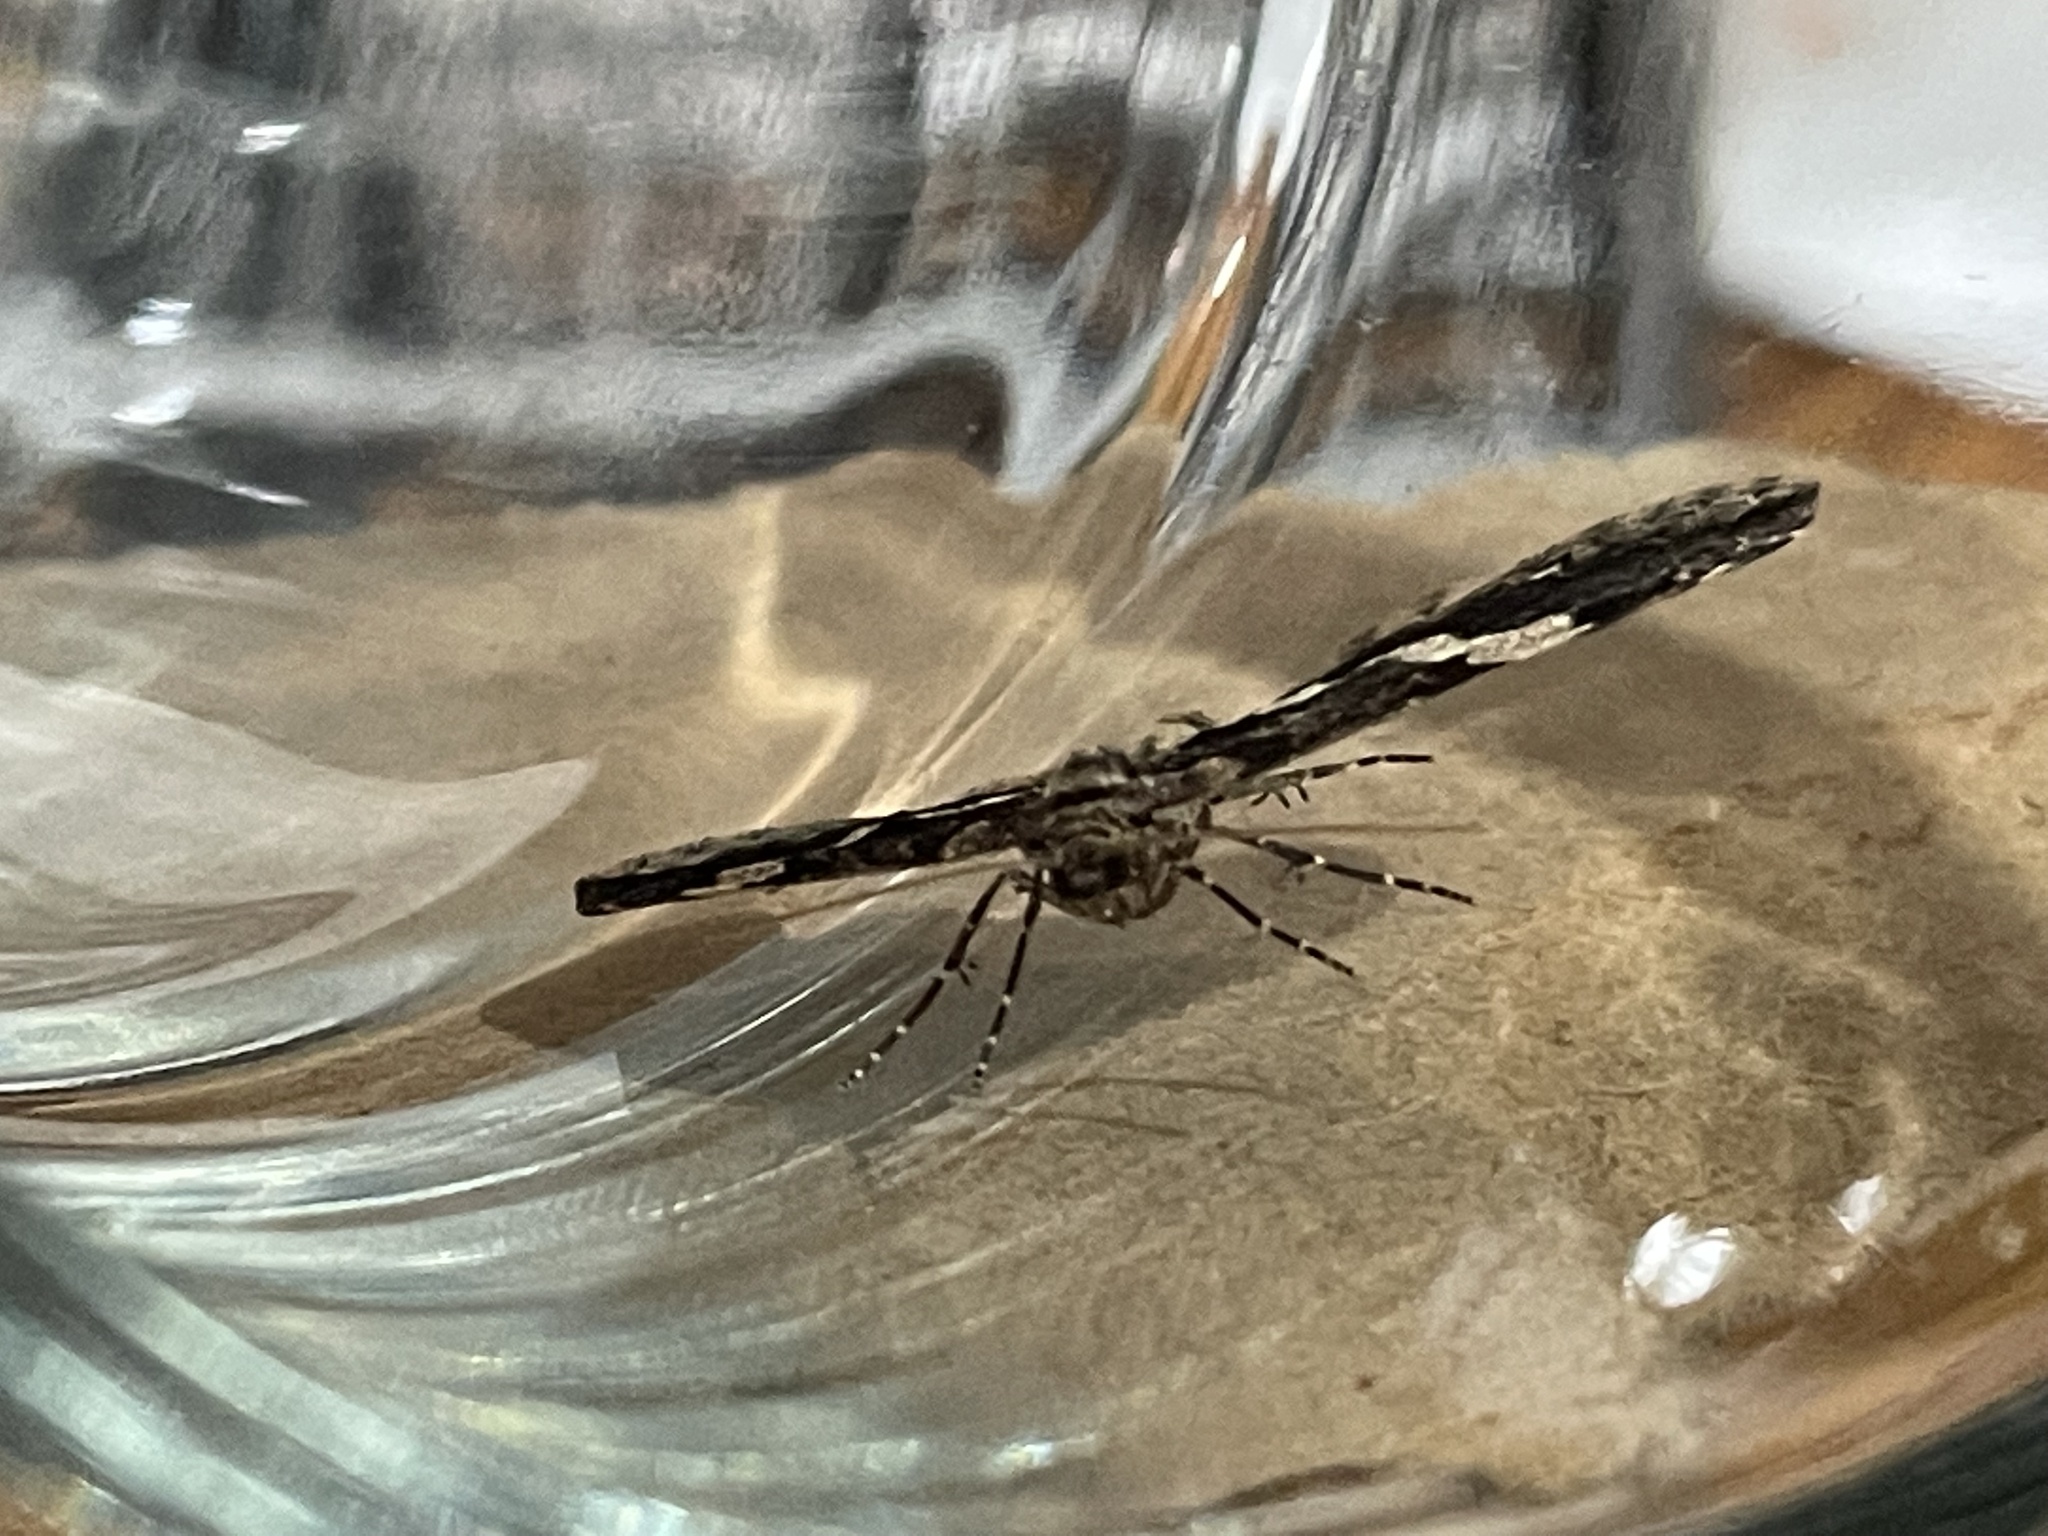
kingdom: Animalia
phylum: Arthropoda
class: Insecta
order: Lepidoptera
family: Geometridae
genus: Anticlea
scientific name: Anticlea vasiliata
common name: Variable carpet
